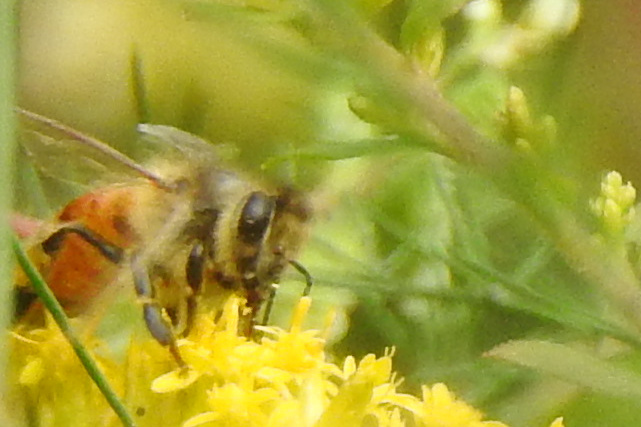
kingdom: Animalia
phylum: Arthropoda
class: Insecta
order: Hymenoptera
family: Apidae
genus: Apis
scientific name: Apis mellifera
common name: Honey bee
